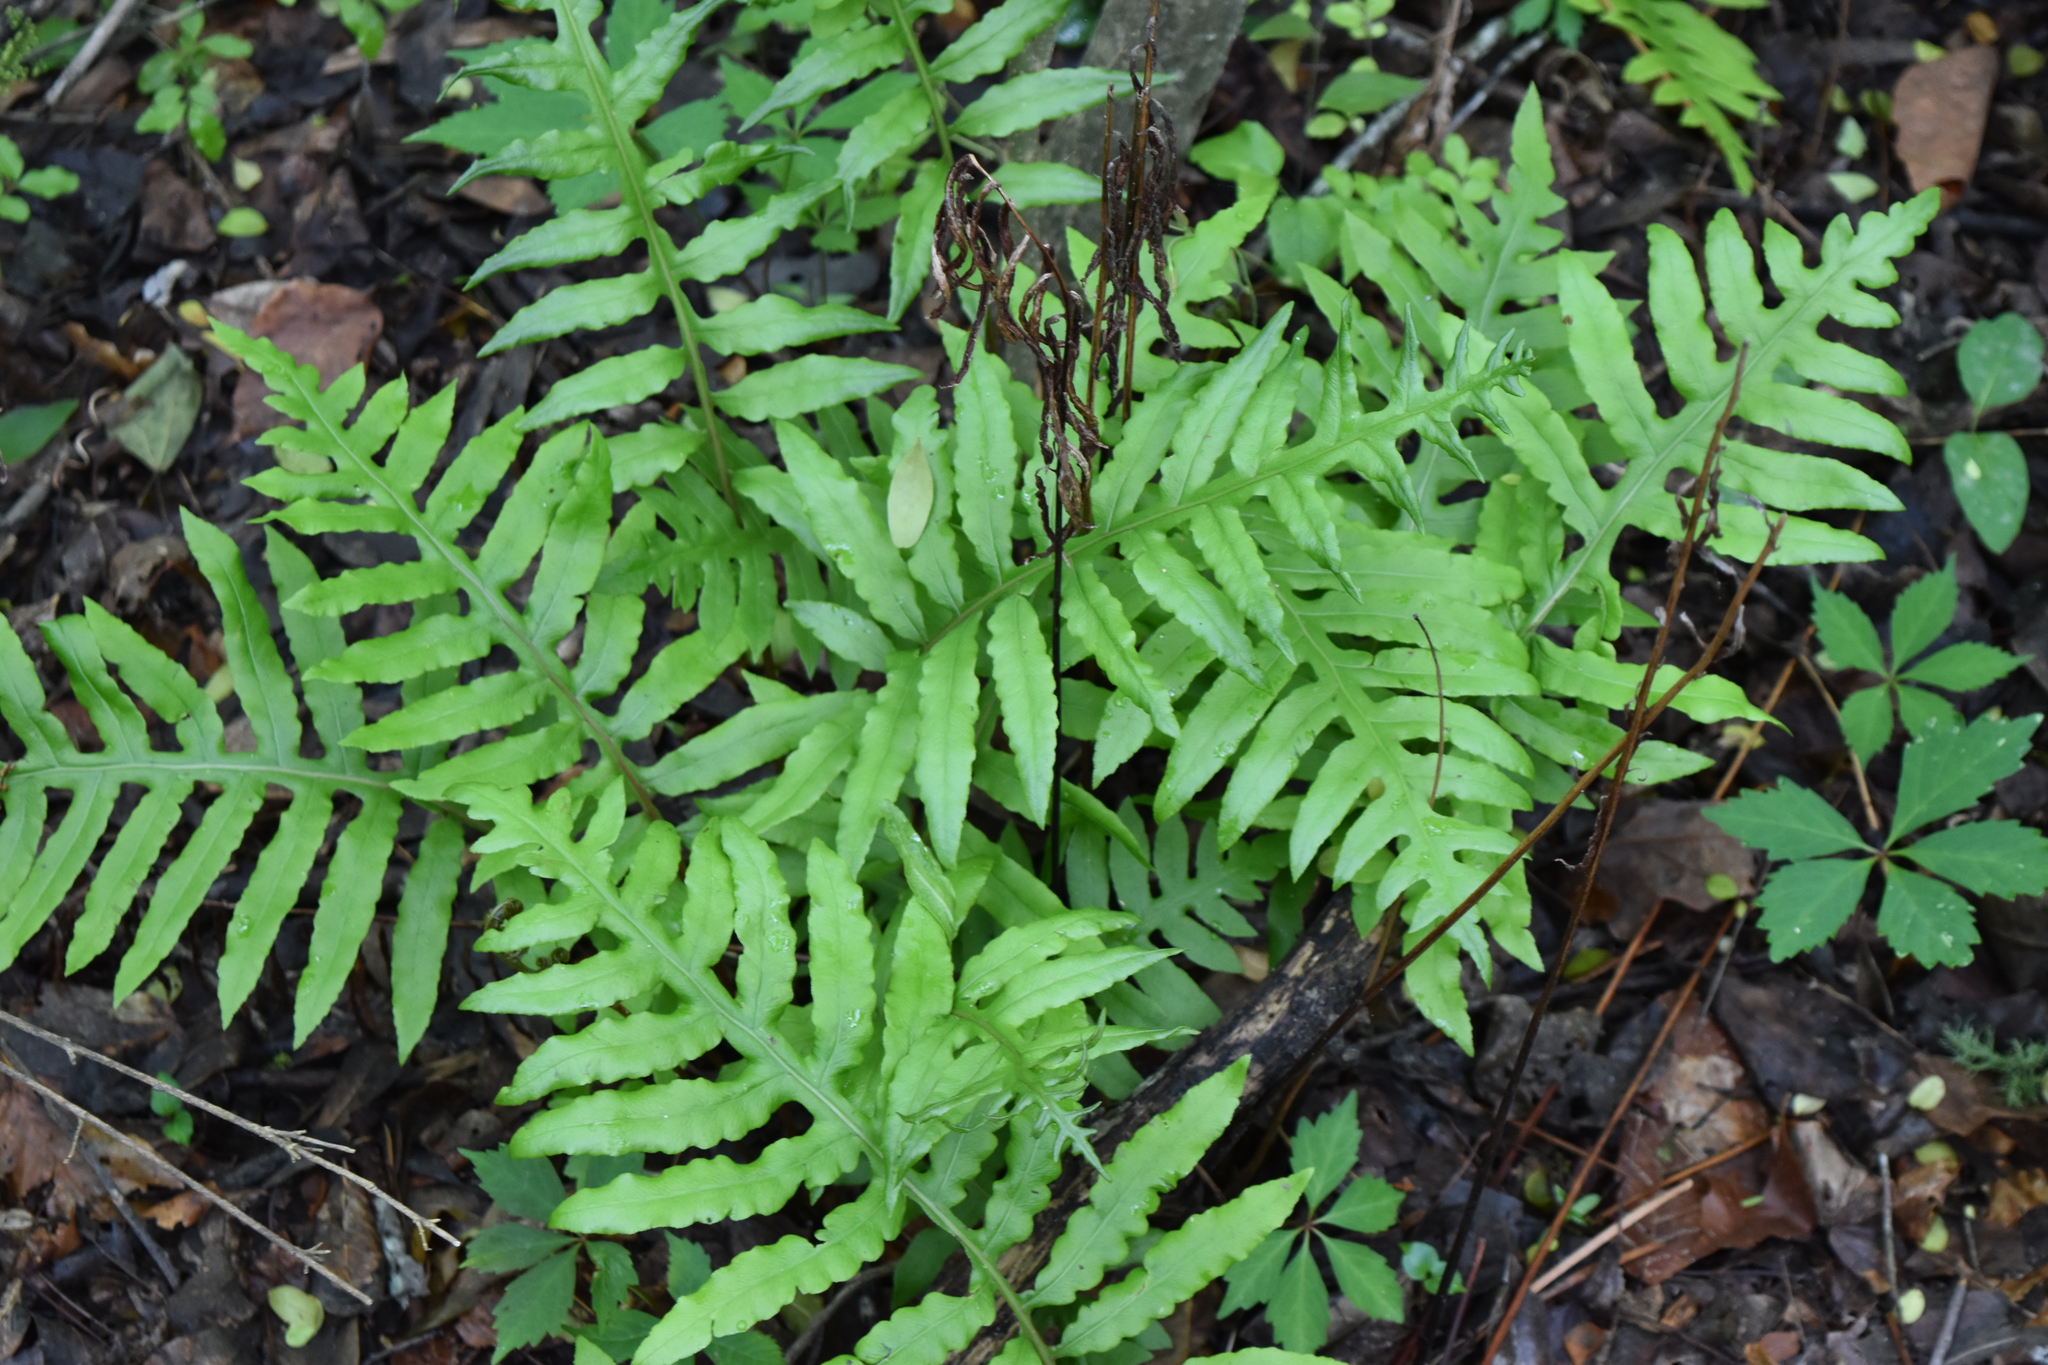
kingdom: Plantae
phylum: Tracheophyta
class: Polypodiopsida
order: Polypodiales
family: Blechnaceae
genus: Lorinseria
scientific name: Lorinseria areolata
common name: Dwarf chain fern
